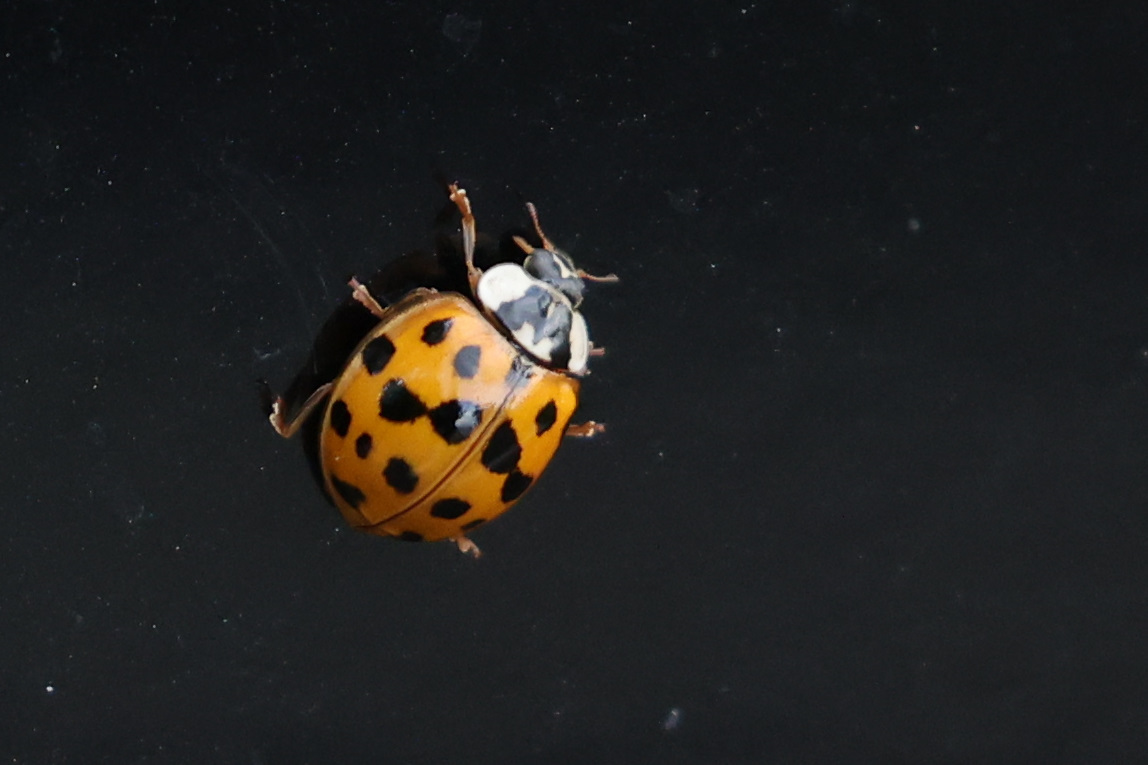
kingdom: Animalia
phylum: Arthropoda
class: Insecta
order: Coleoptera
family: Coccinellidae
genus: Harmonia
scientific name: Harmonia axyridis
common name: Harlequin ladybird
